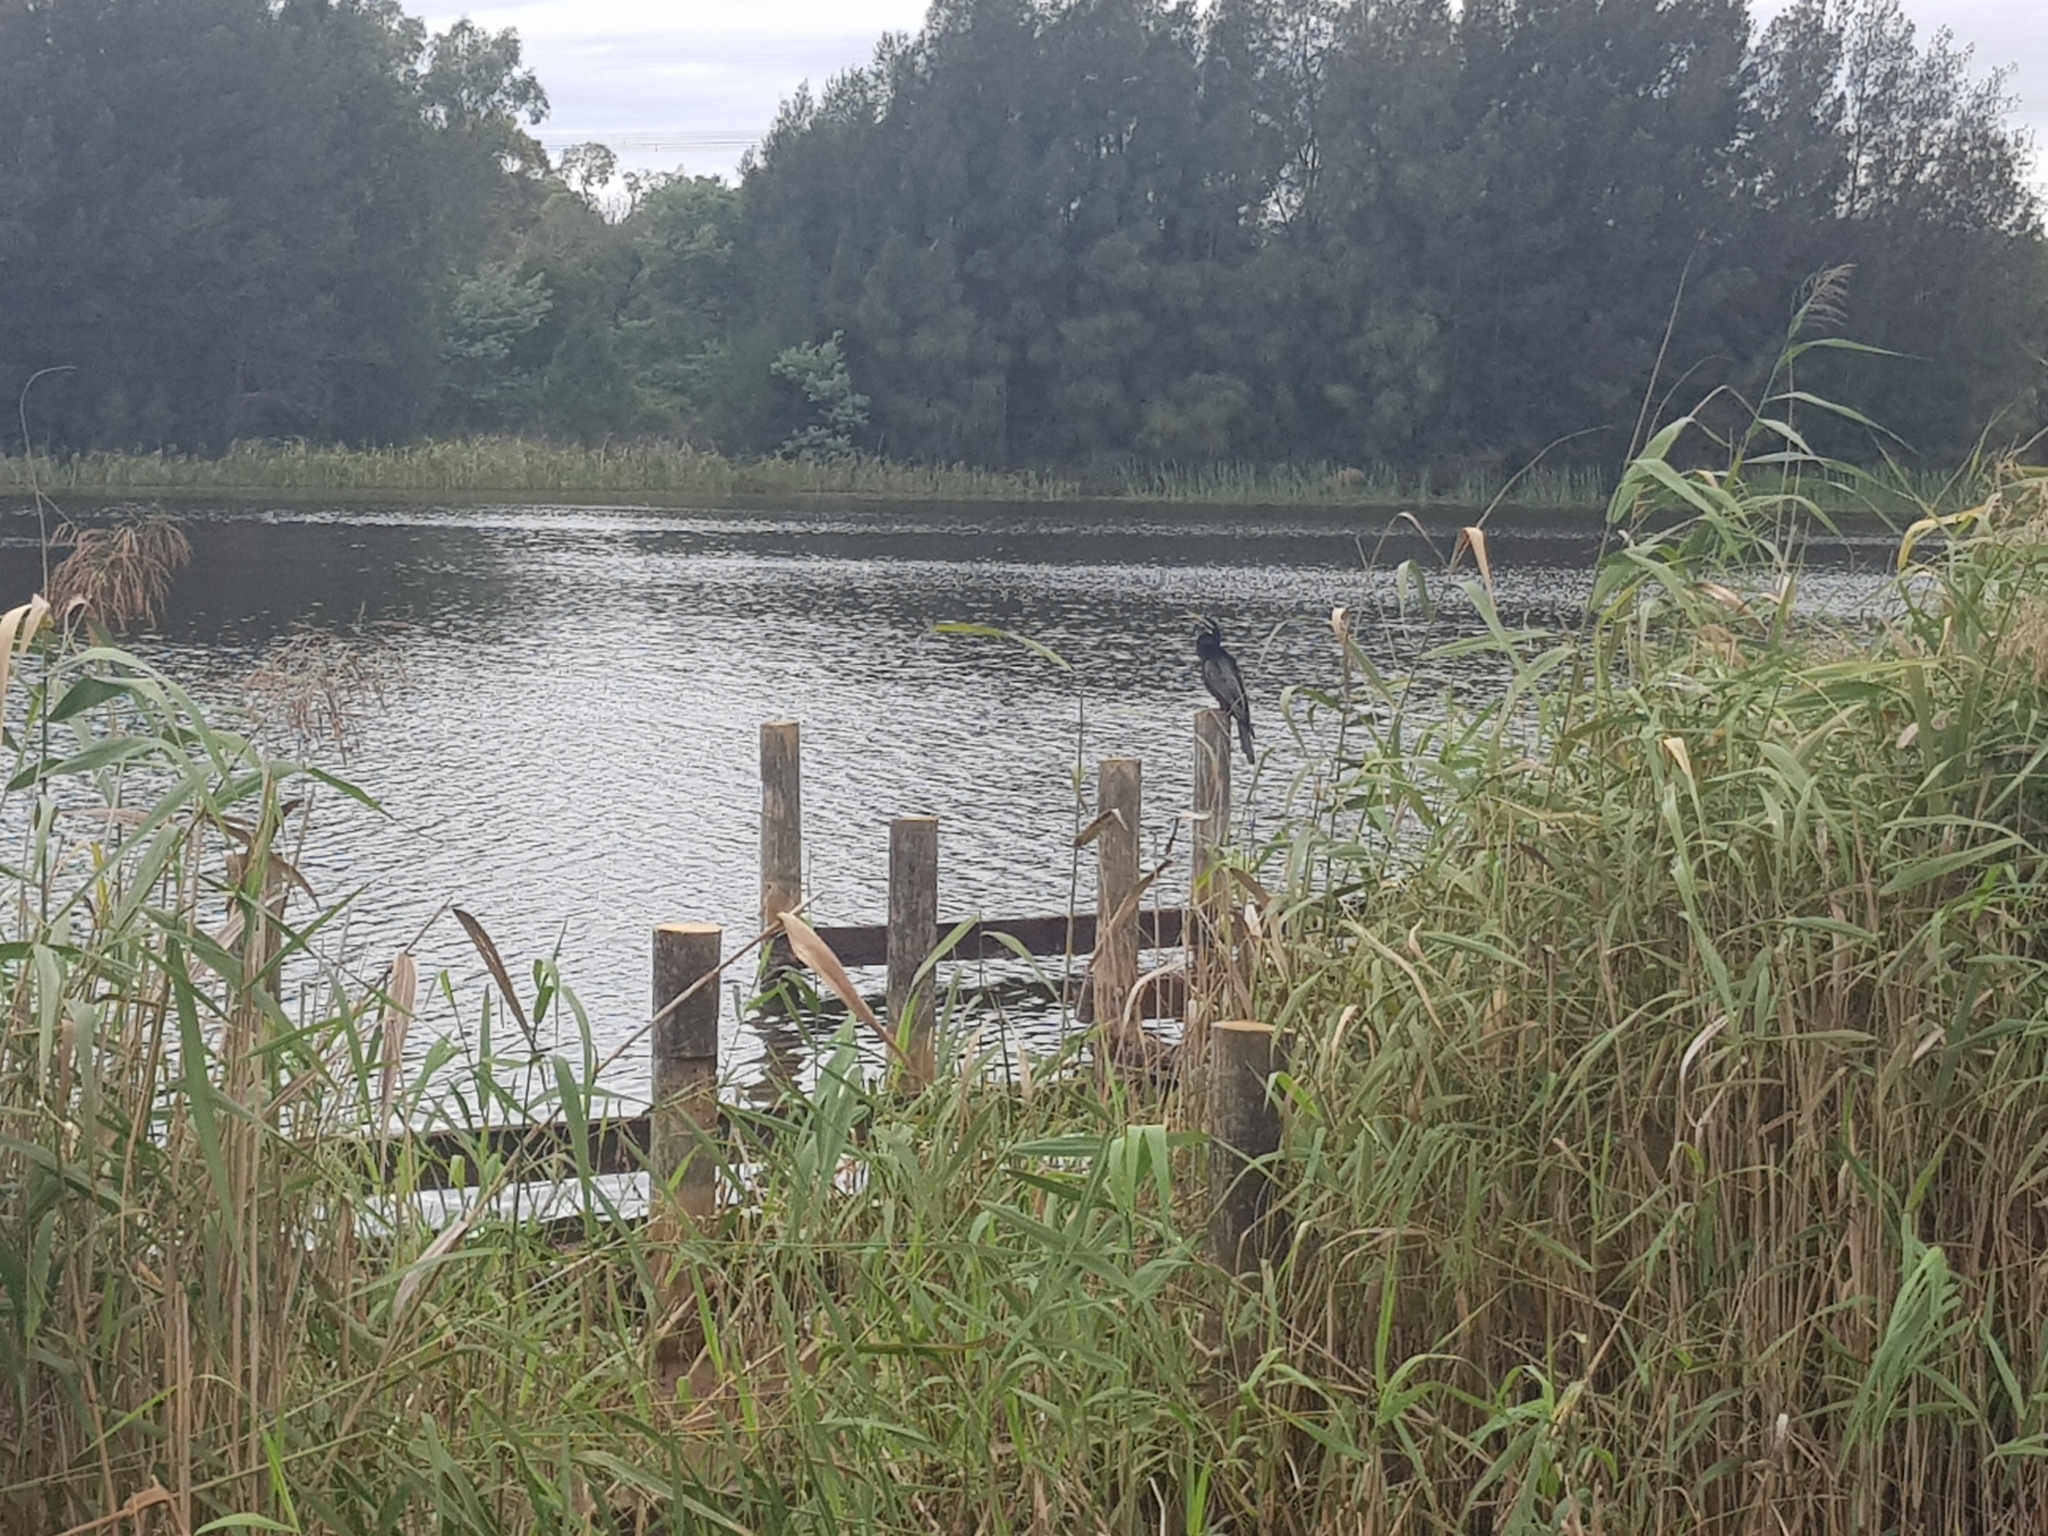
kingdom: Animalia
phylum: Chordata
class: Aves
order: Suliformes
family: Anhingidae
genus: Anhinga
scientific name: Anhinga novaehollandiae
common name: Australasian darter
